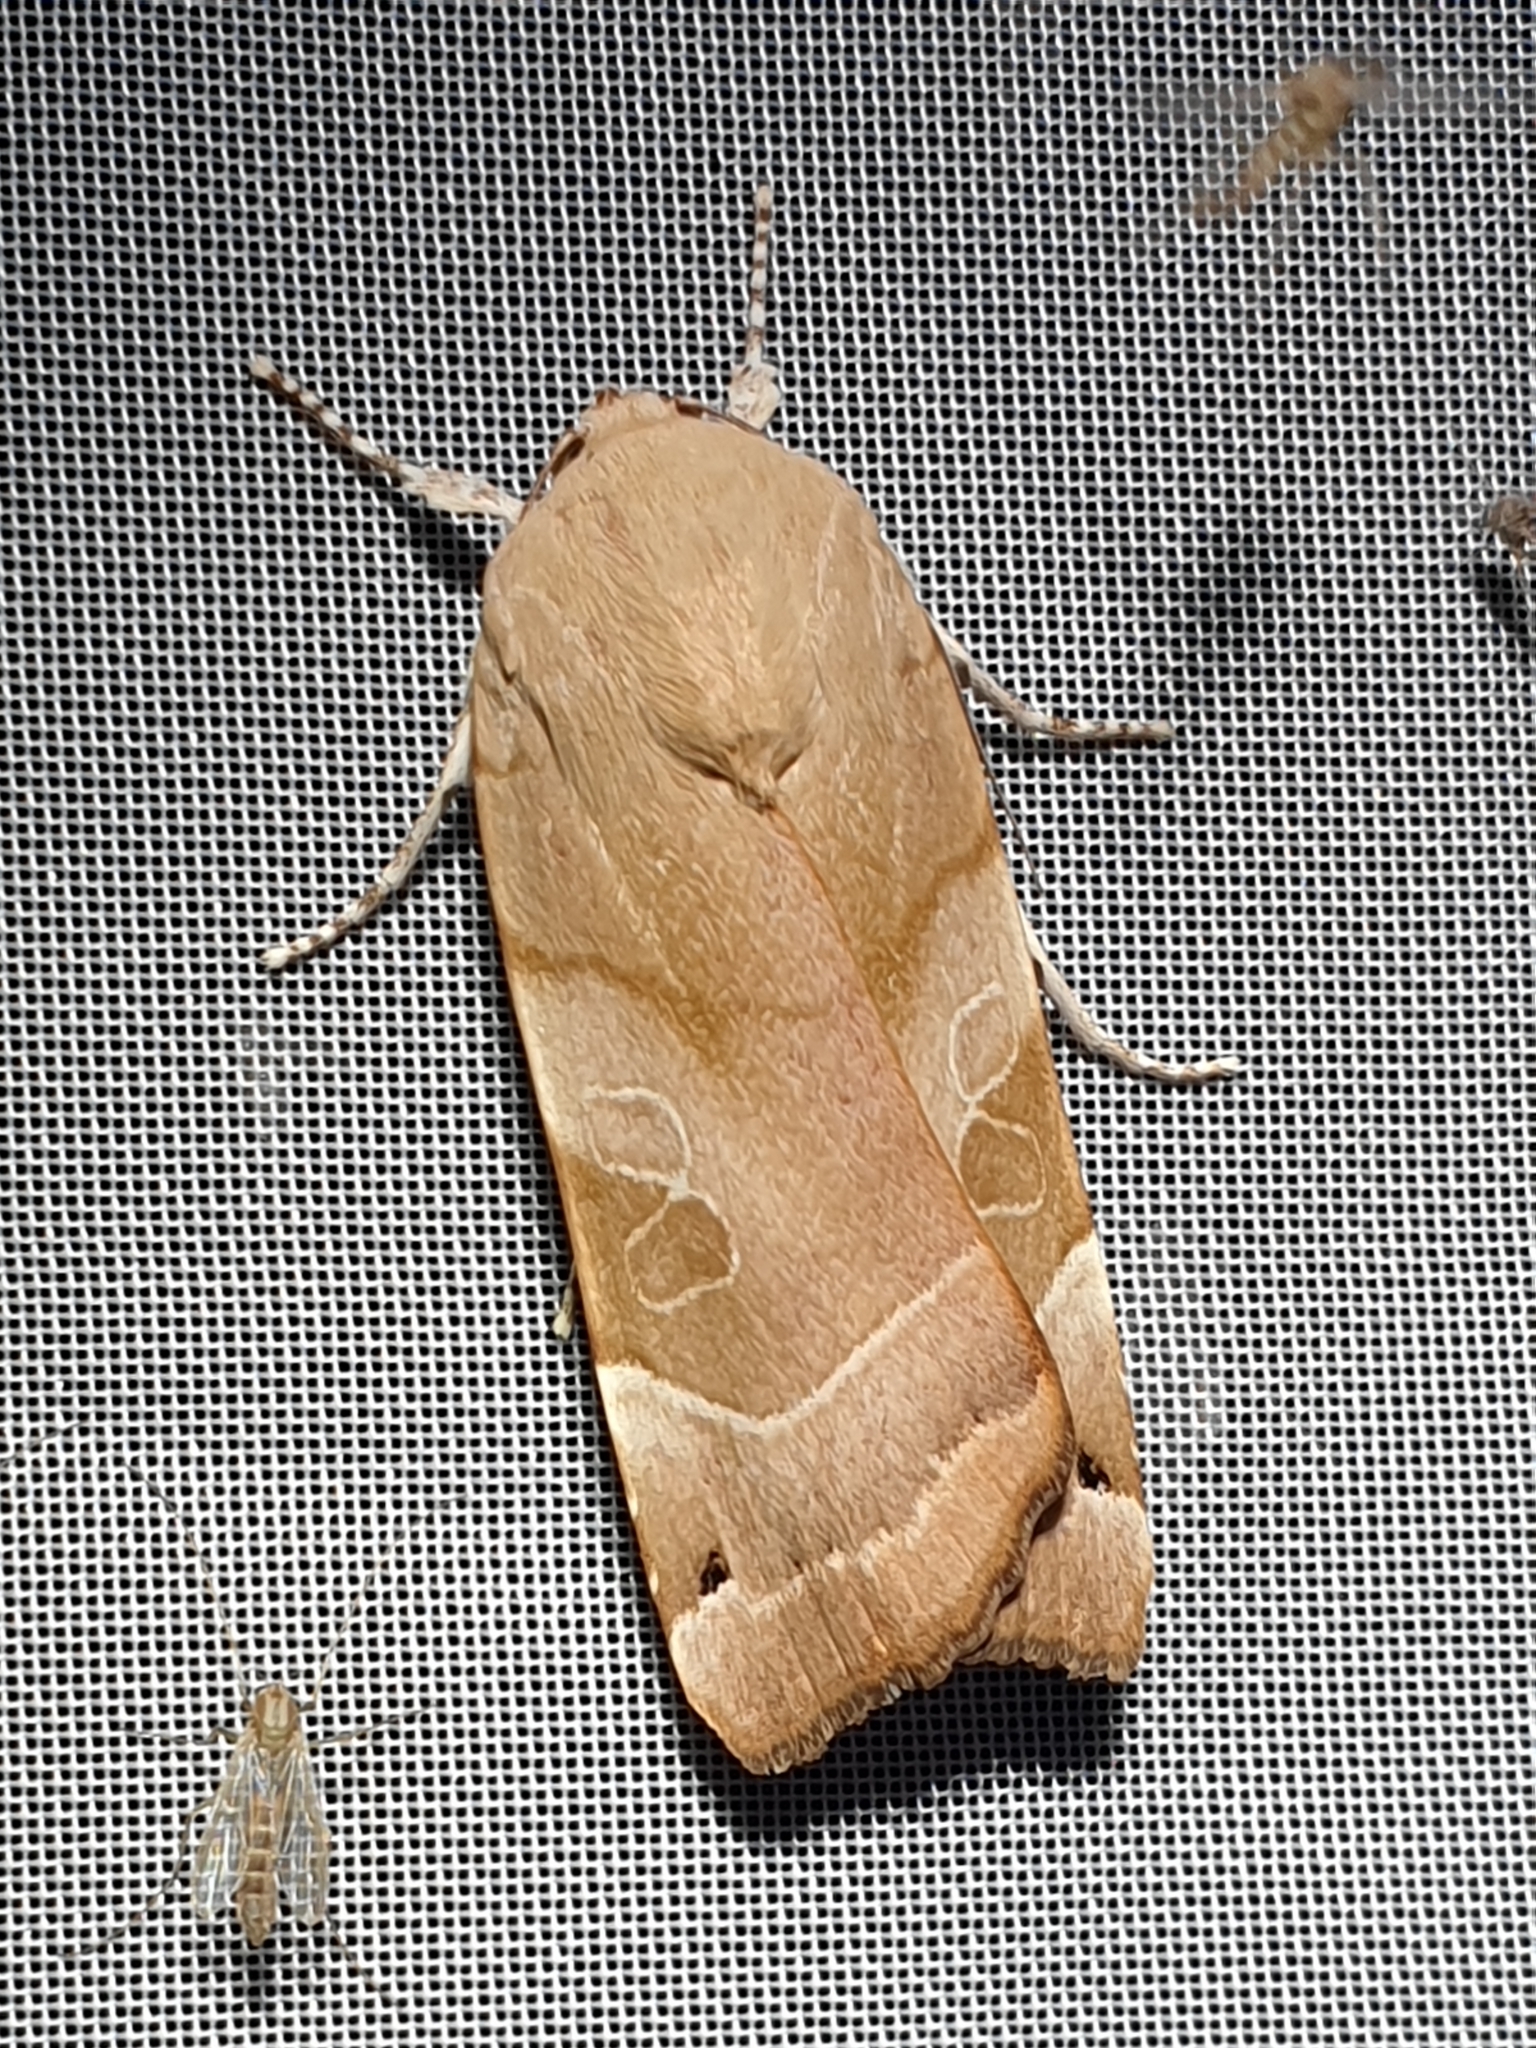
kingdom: Animalia
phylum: Arthropoda
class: Insecta
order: Lepidoptera
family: Noctuidae
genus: Noctua
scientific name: Noctua fimbriata
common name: Broad-bordered yellow underwing
